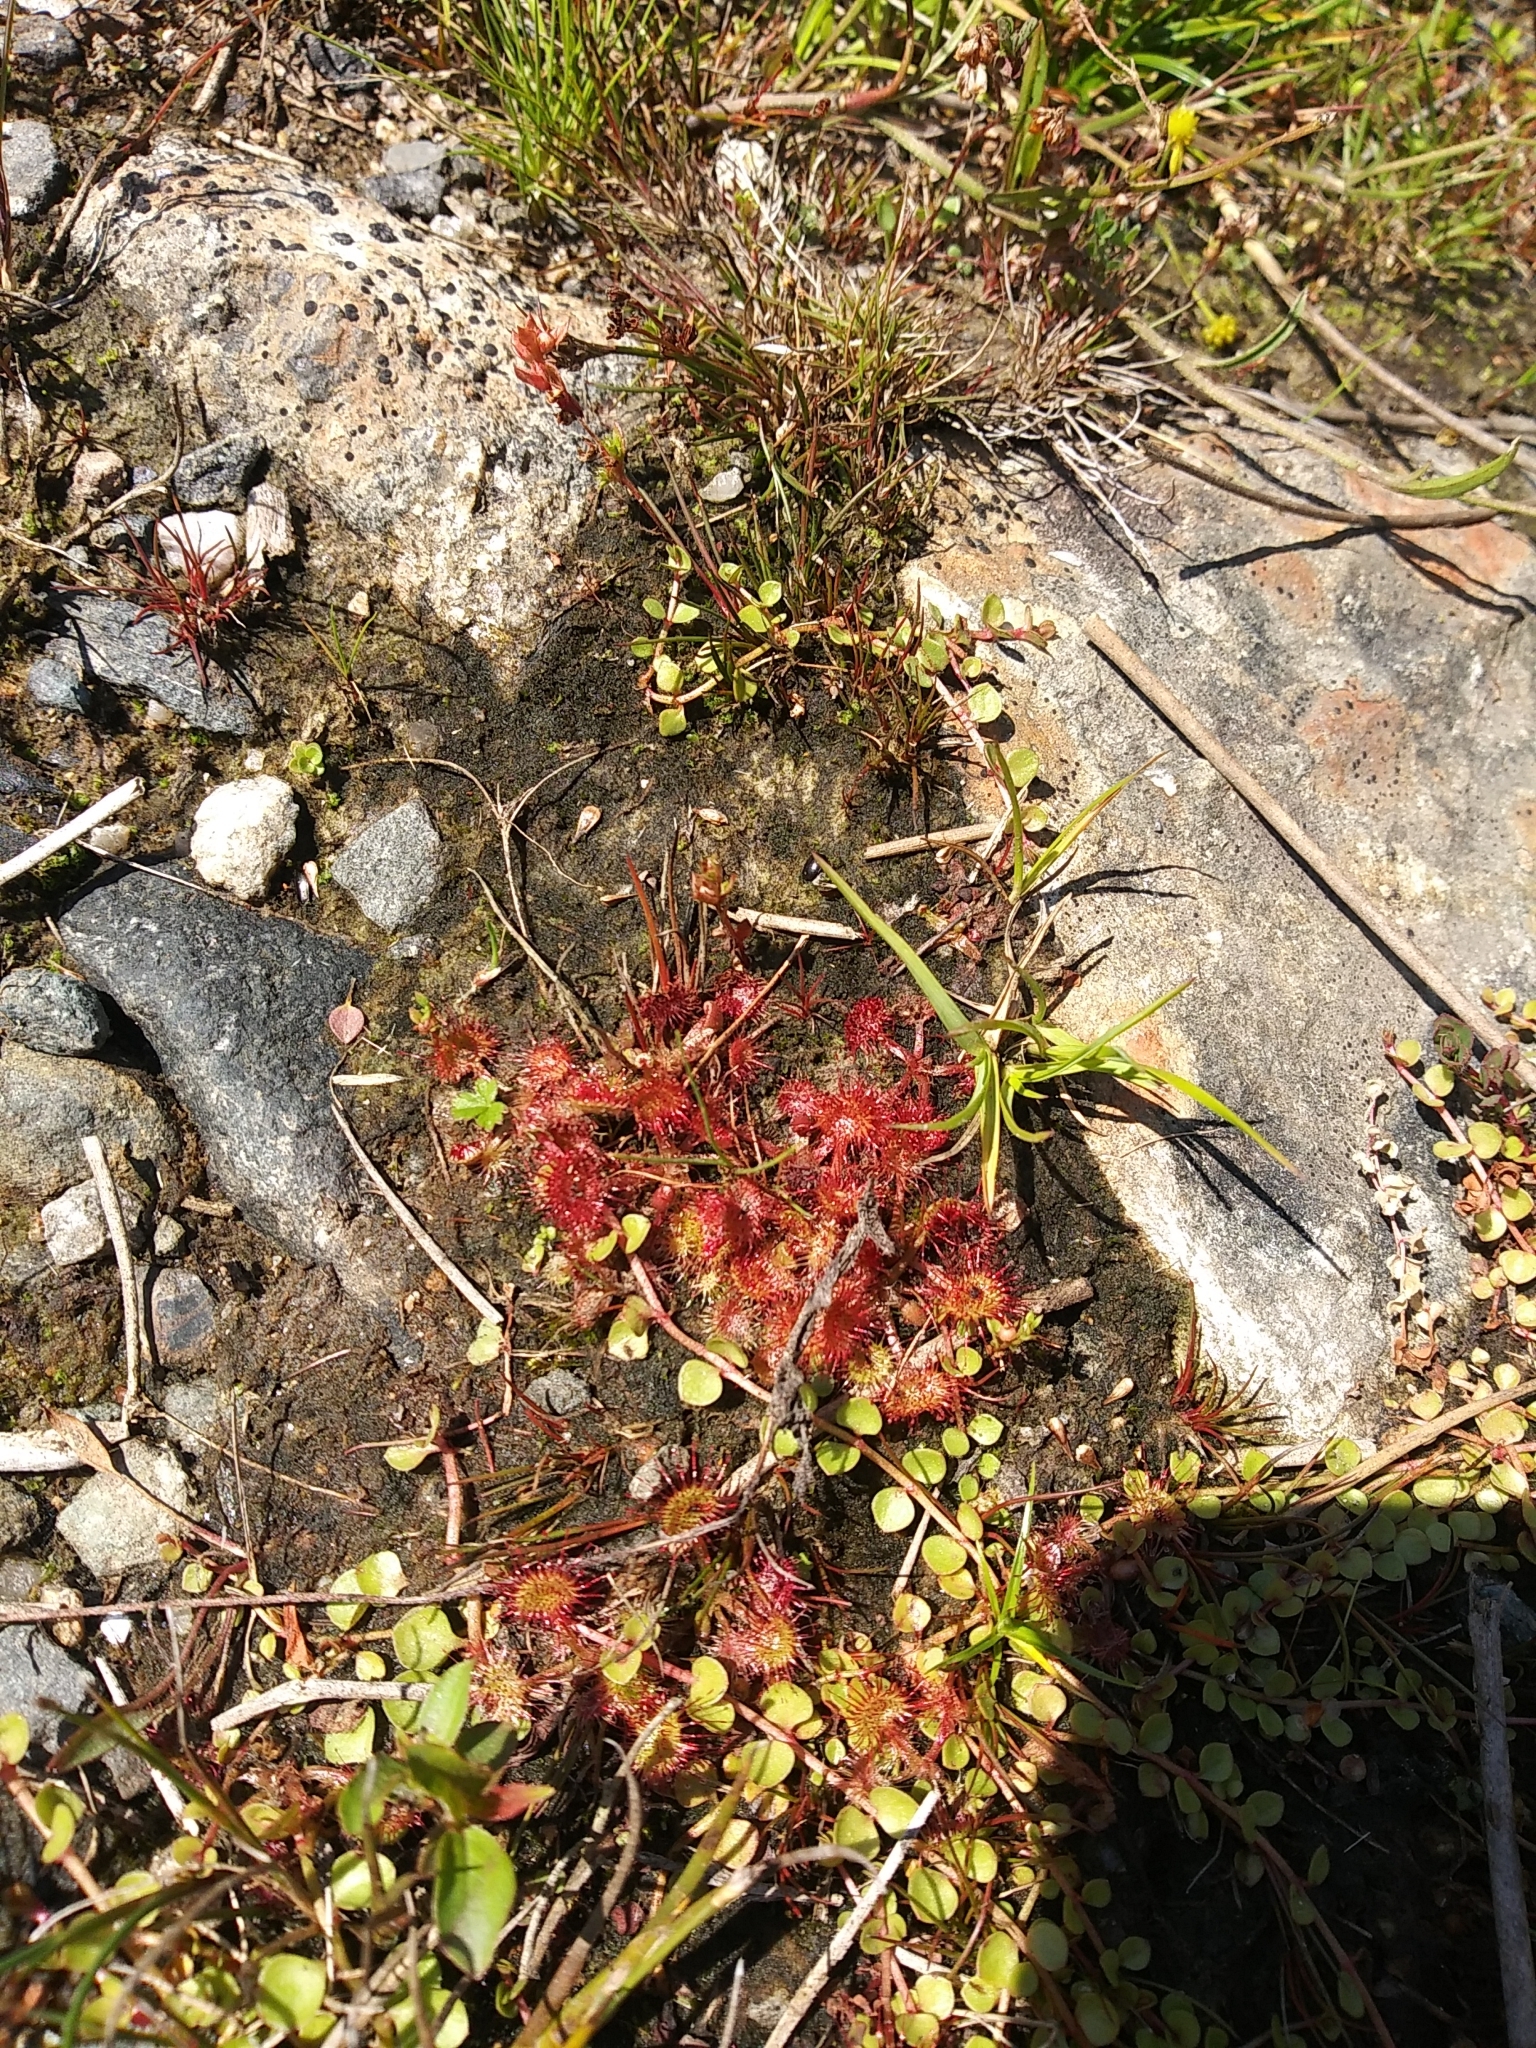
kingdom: Plantae
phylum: Tracheophyta
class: Magnoliopsida
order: Caryophyllales
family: Droseraceae
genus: Drosera
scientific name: Drosera rotundifolia
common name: Round-leaved sundew
